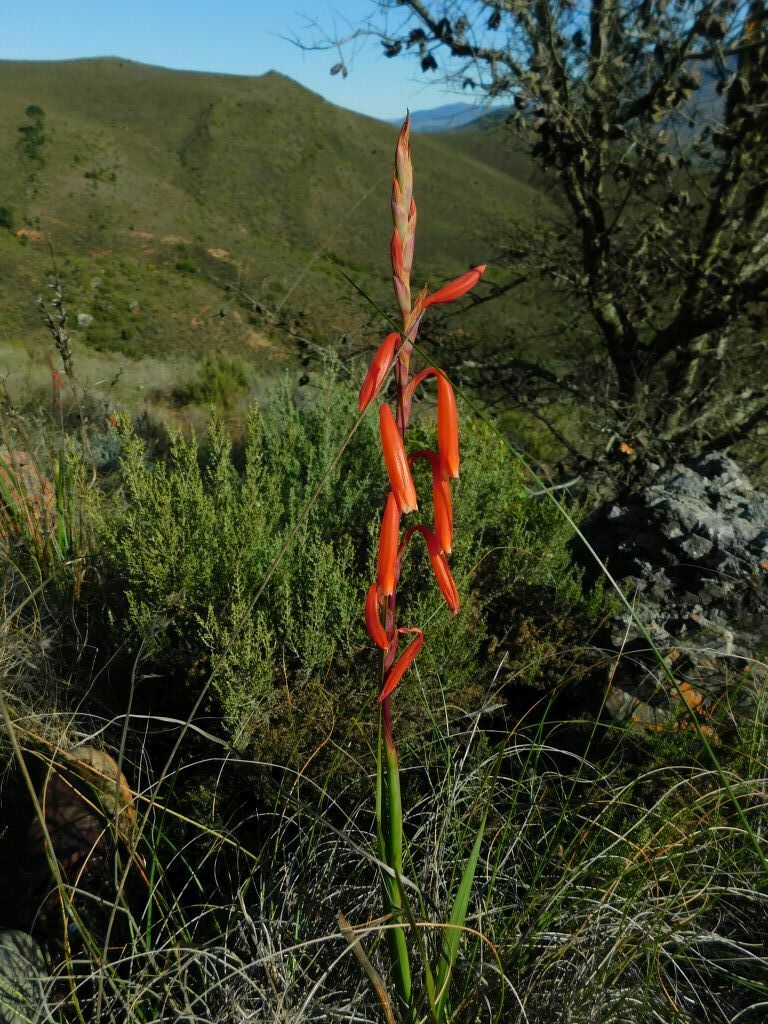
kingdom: Plantae
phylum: Tracheophyta
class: Liliopsida
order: Asparagales
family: Iridaceae
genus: Watsonia
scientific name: Watsonia aletroides
